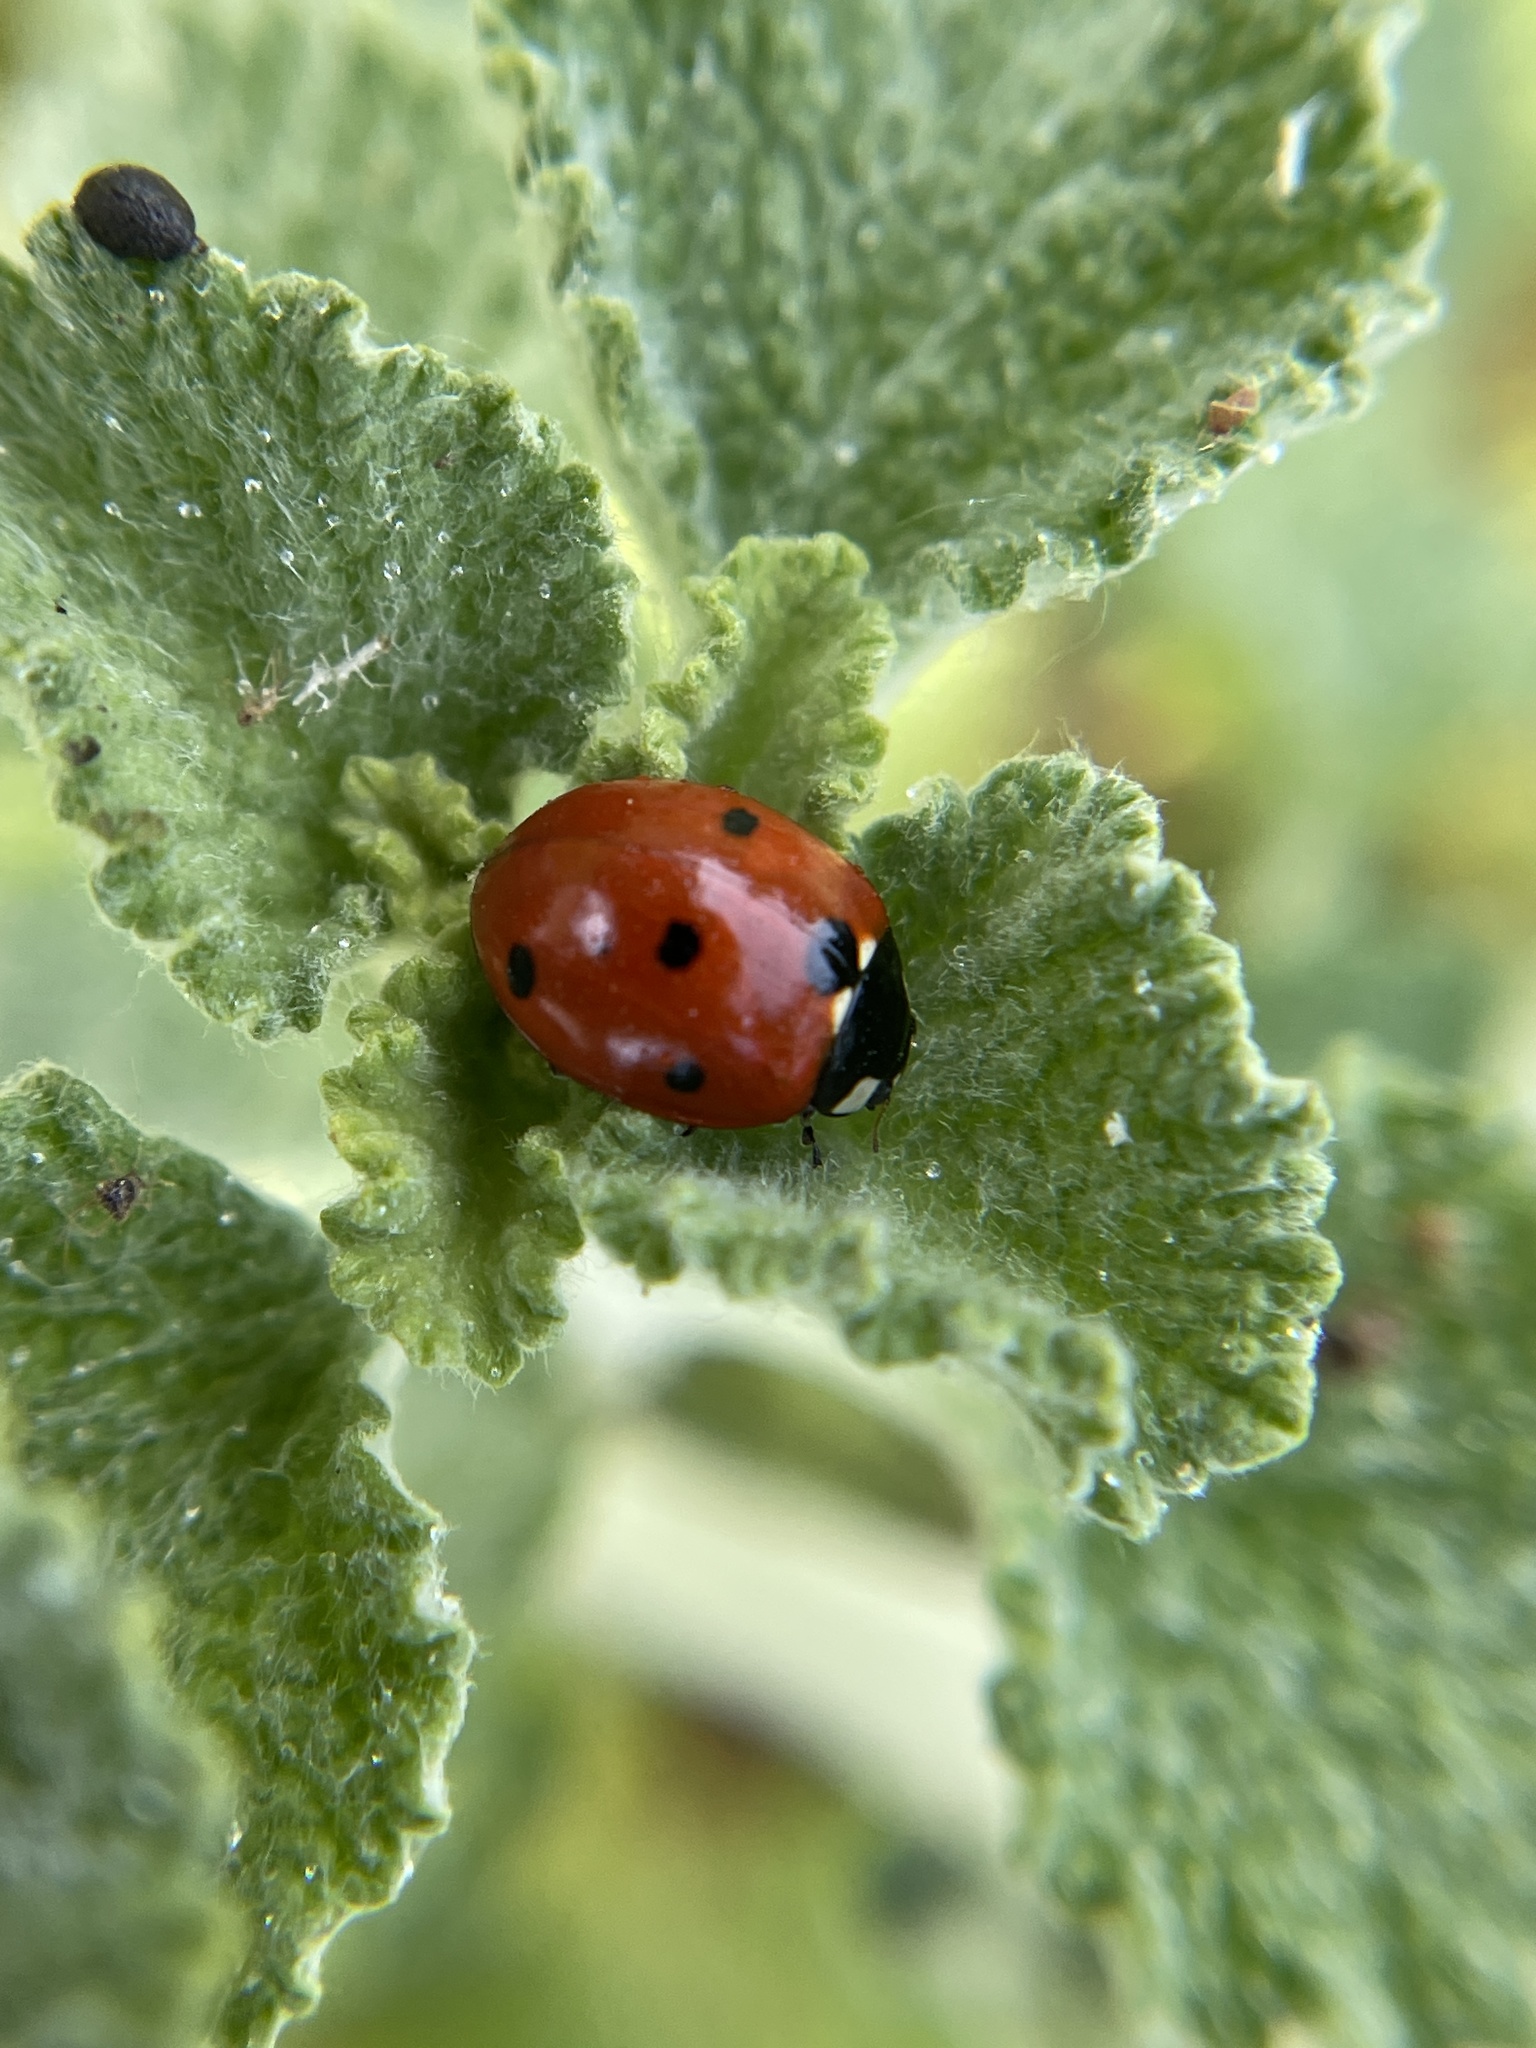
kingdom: Animalia
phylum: Arthropoda
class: Insecta
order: Coleoptera
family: Coccinellidae
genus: Coccinella
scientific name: Coccinella septempunctata
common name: Sevenspotted lady beetle
